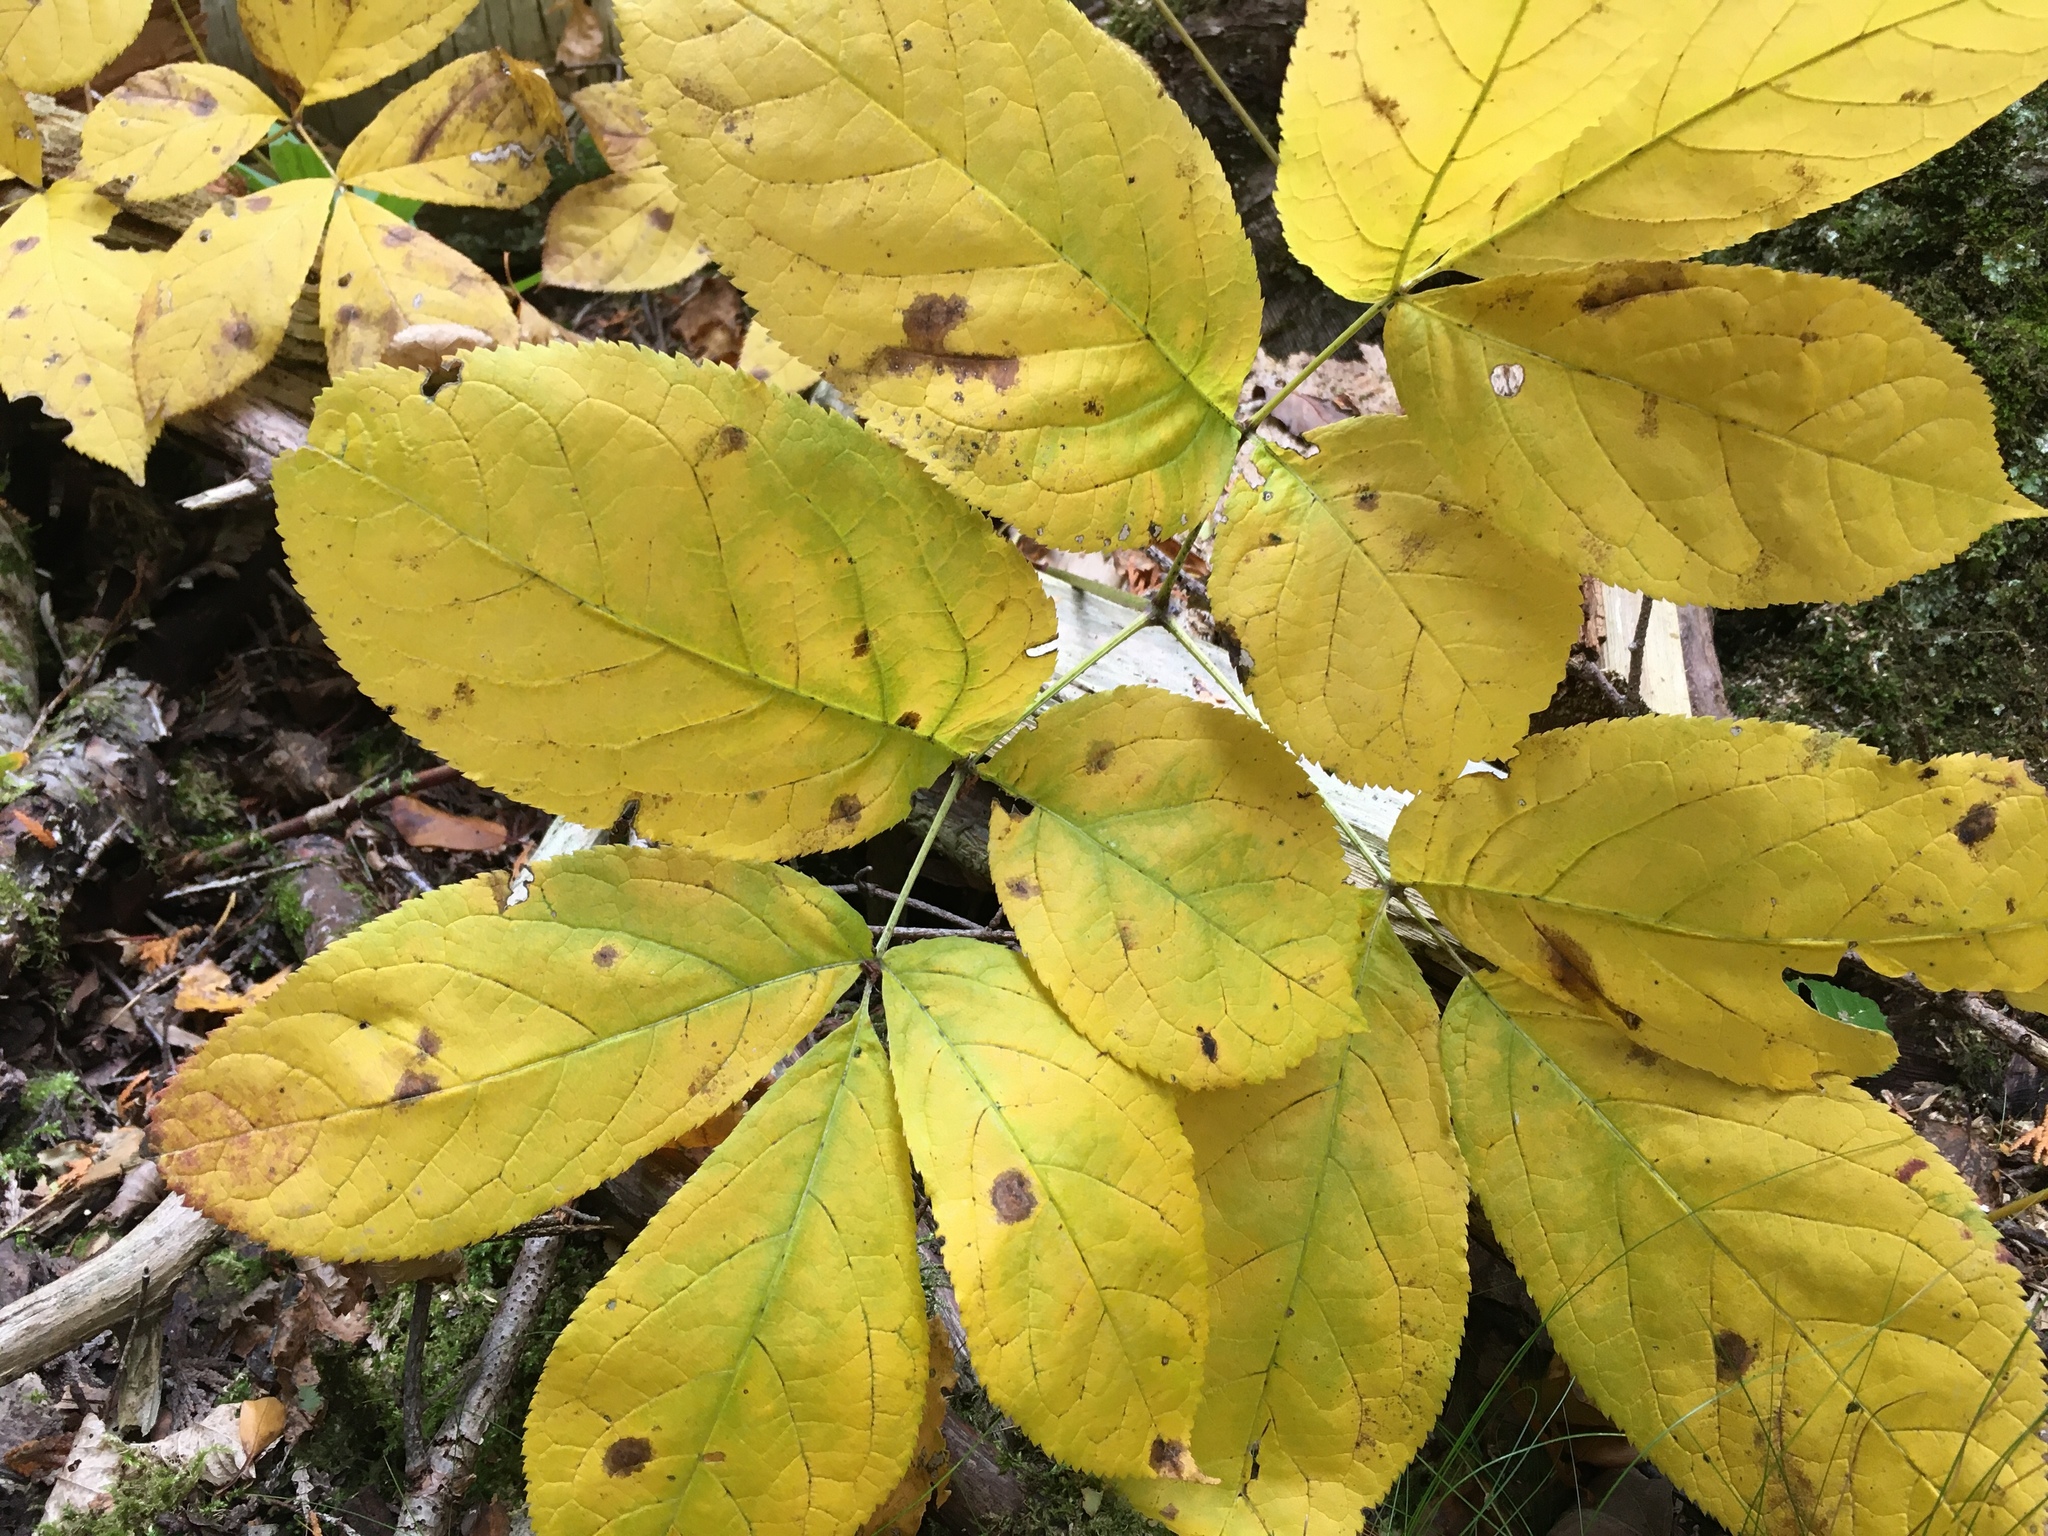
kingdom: Plantae
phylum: Tracheophyta
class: Magnoliopsida
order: Apiales
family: Araliaceae
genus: Aralia
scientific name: Aralia nudicaulis
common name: Wild sarsaparilla
